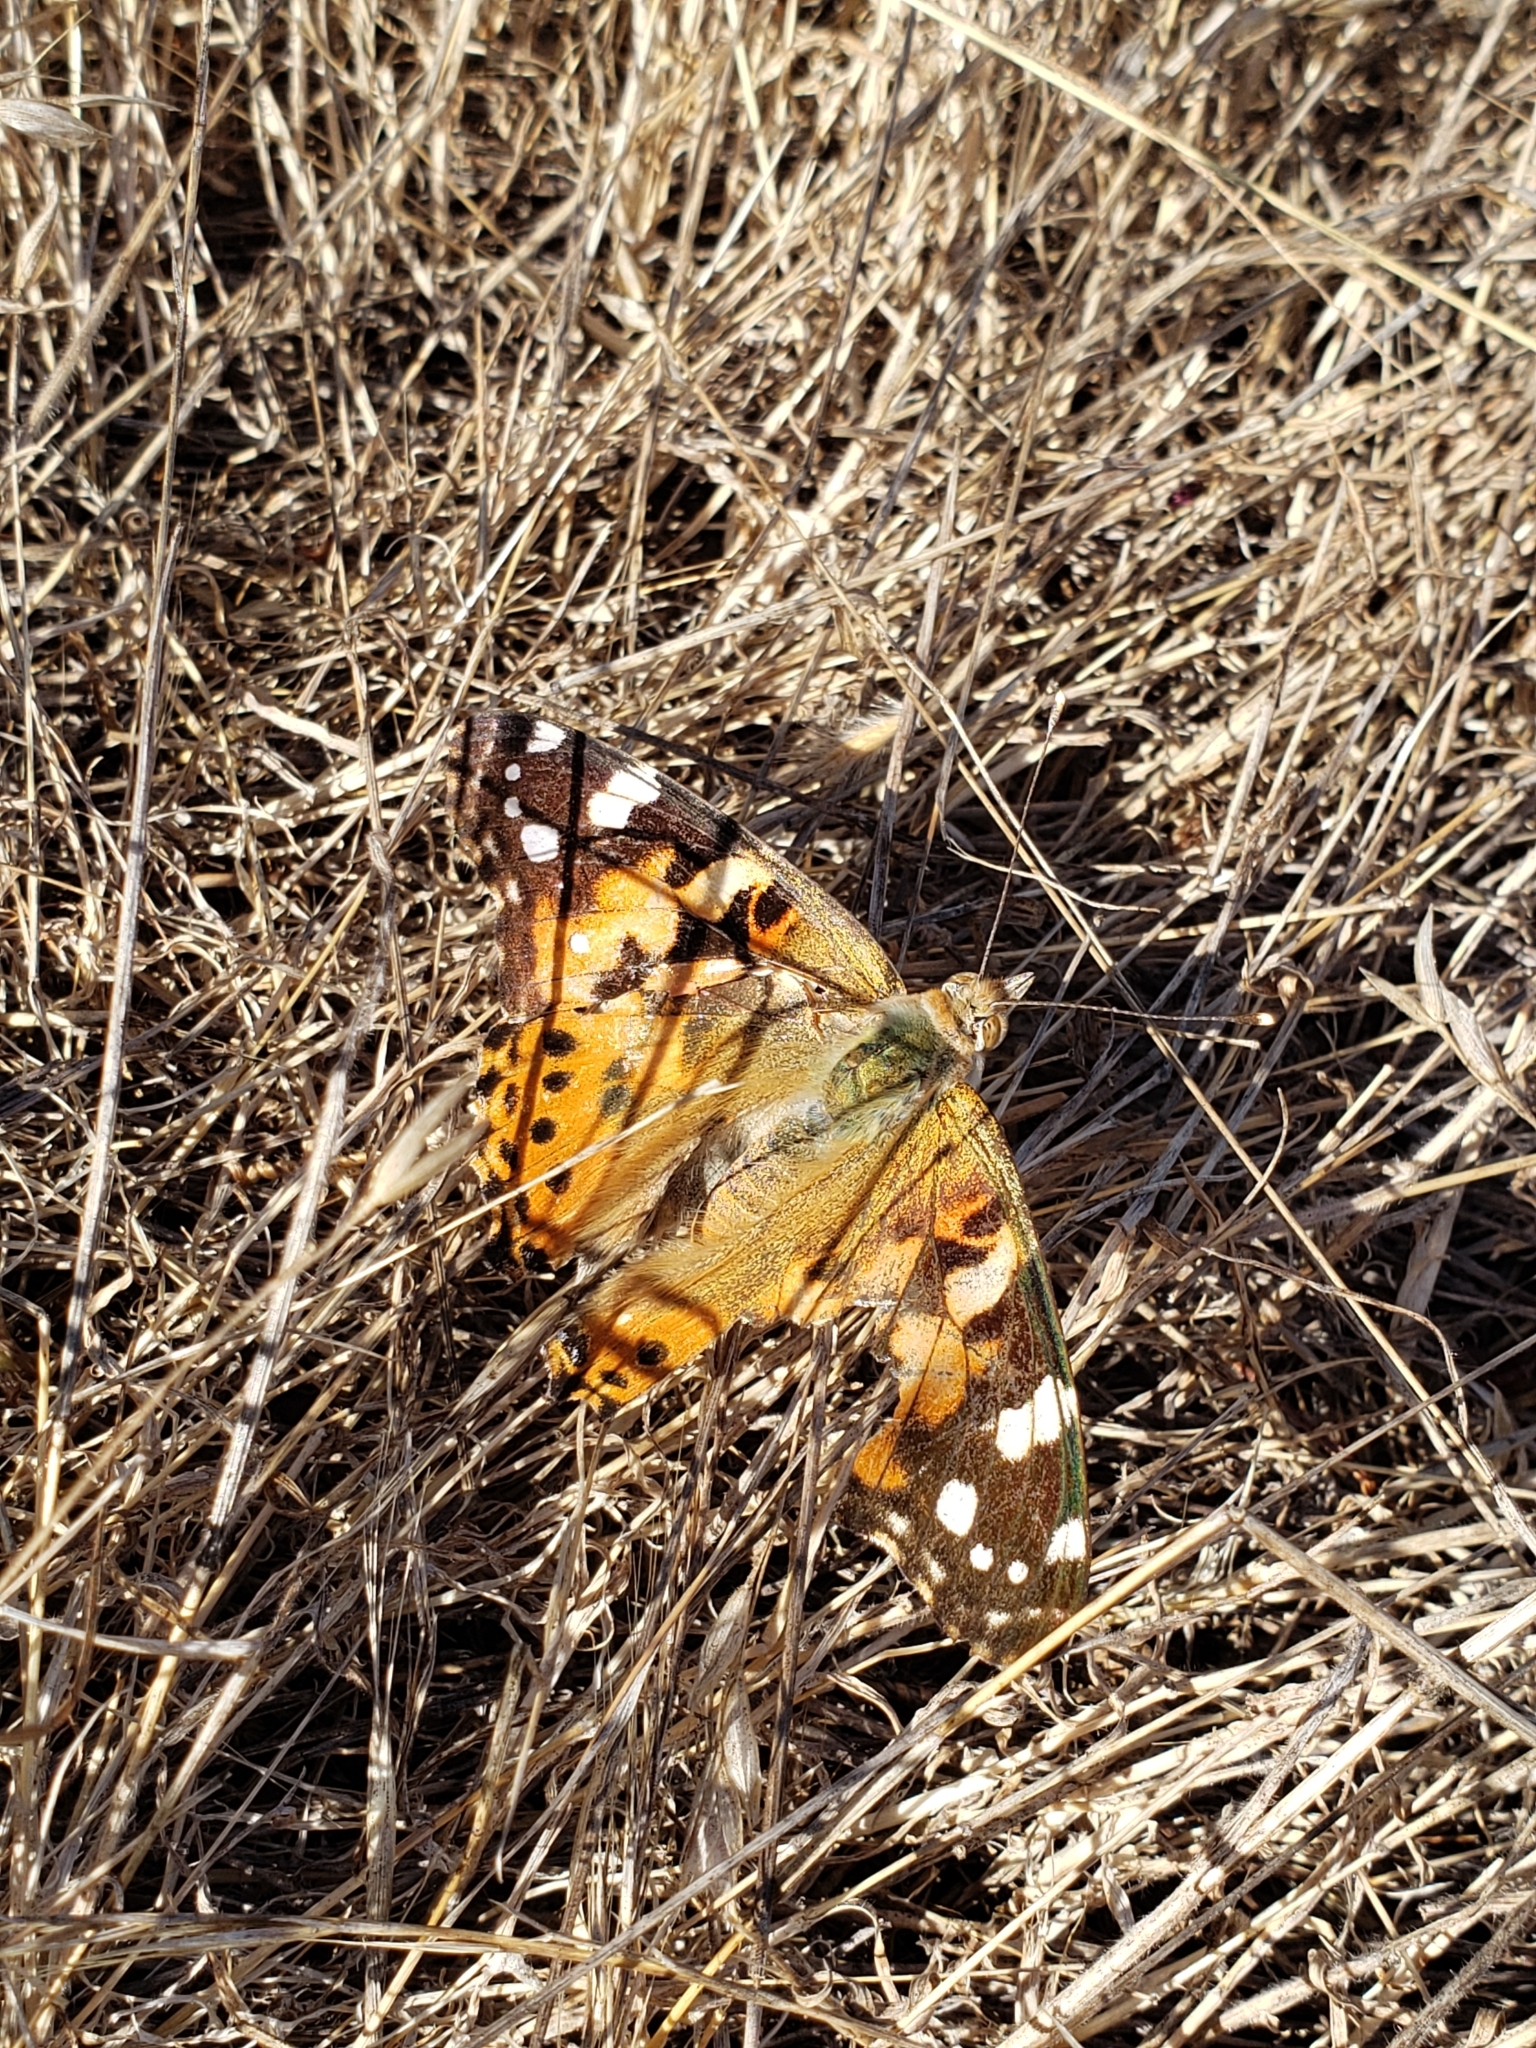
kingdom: Animalia
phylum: Arthropoda
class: Insecta
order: Lepidoptera
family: Nymphalidae
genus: Vanessa
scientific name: Vanessa cardui
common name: Painted lady
